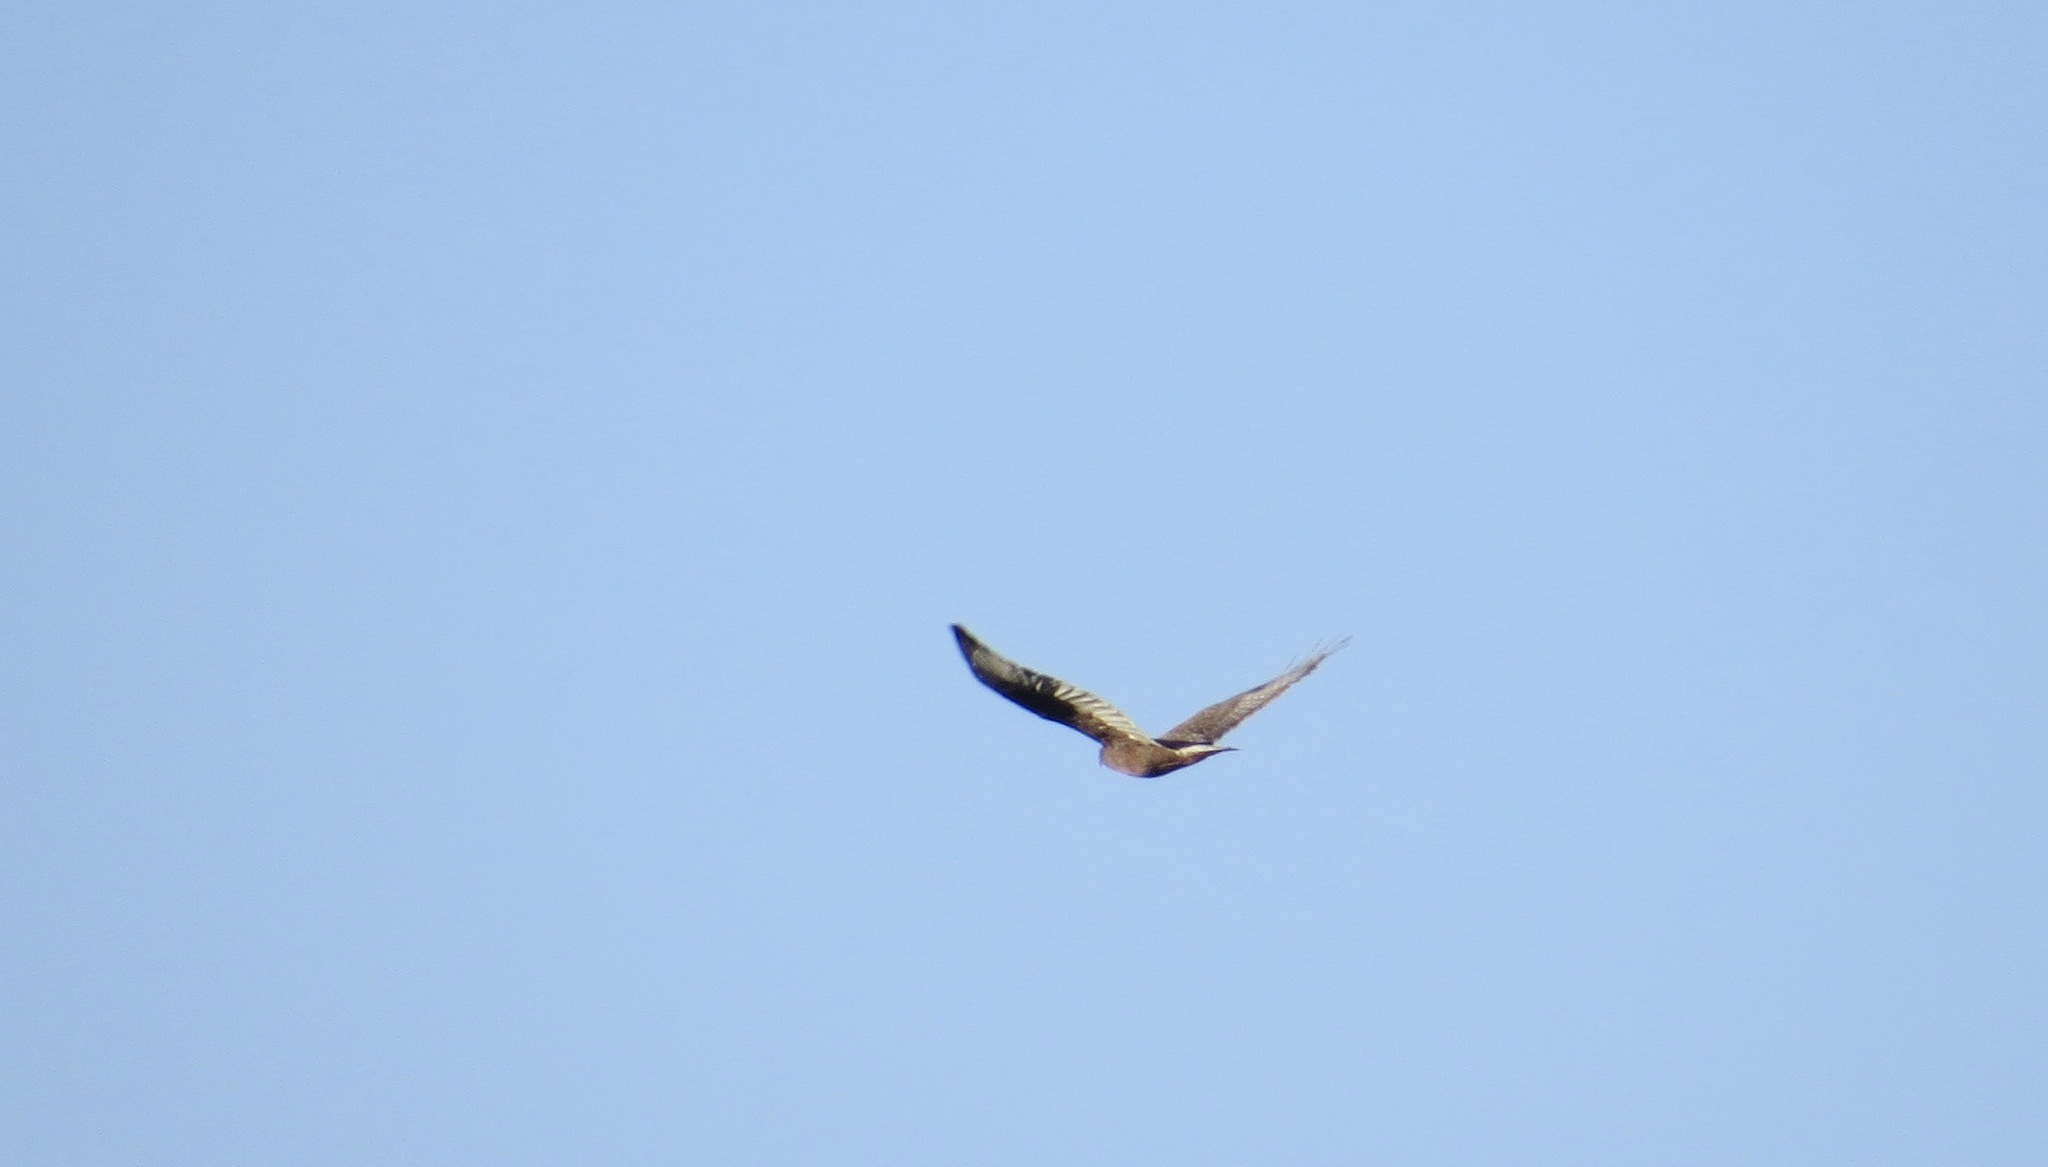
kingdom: Animalia
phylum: Chordata
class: Aves
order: Accipitriformes
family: Accipitridae
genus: Buteo
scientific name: Buteo regalis
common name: Ferruginous hawk
